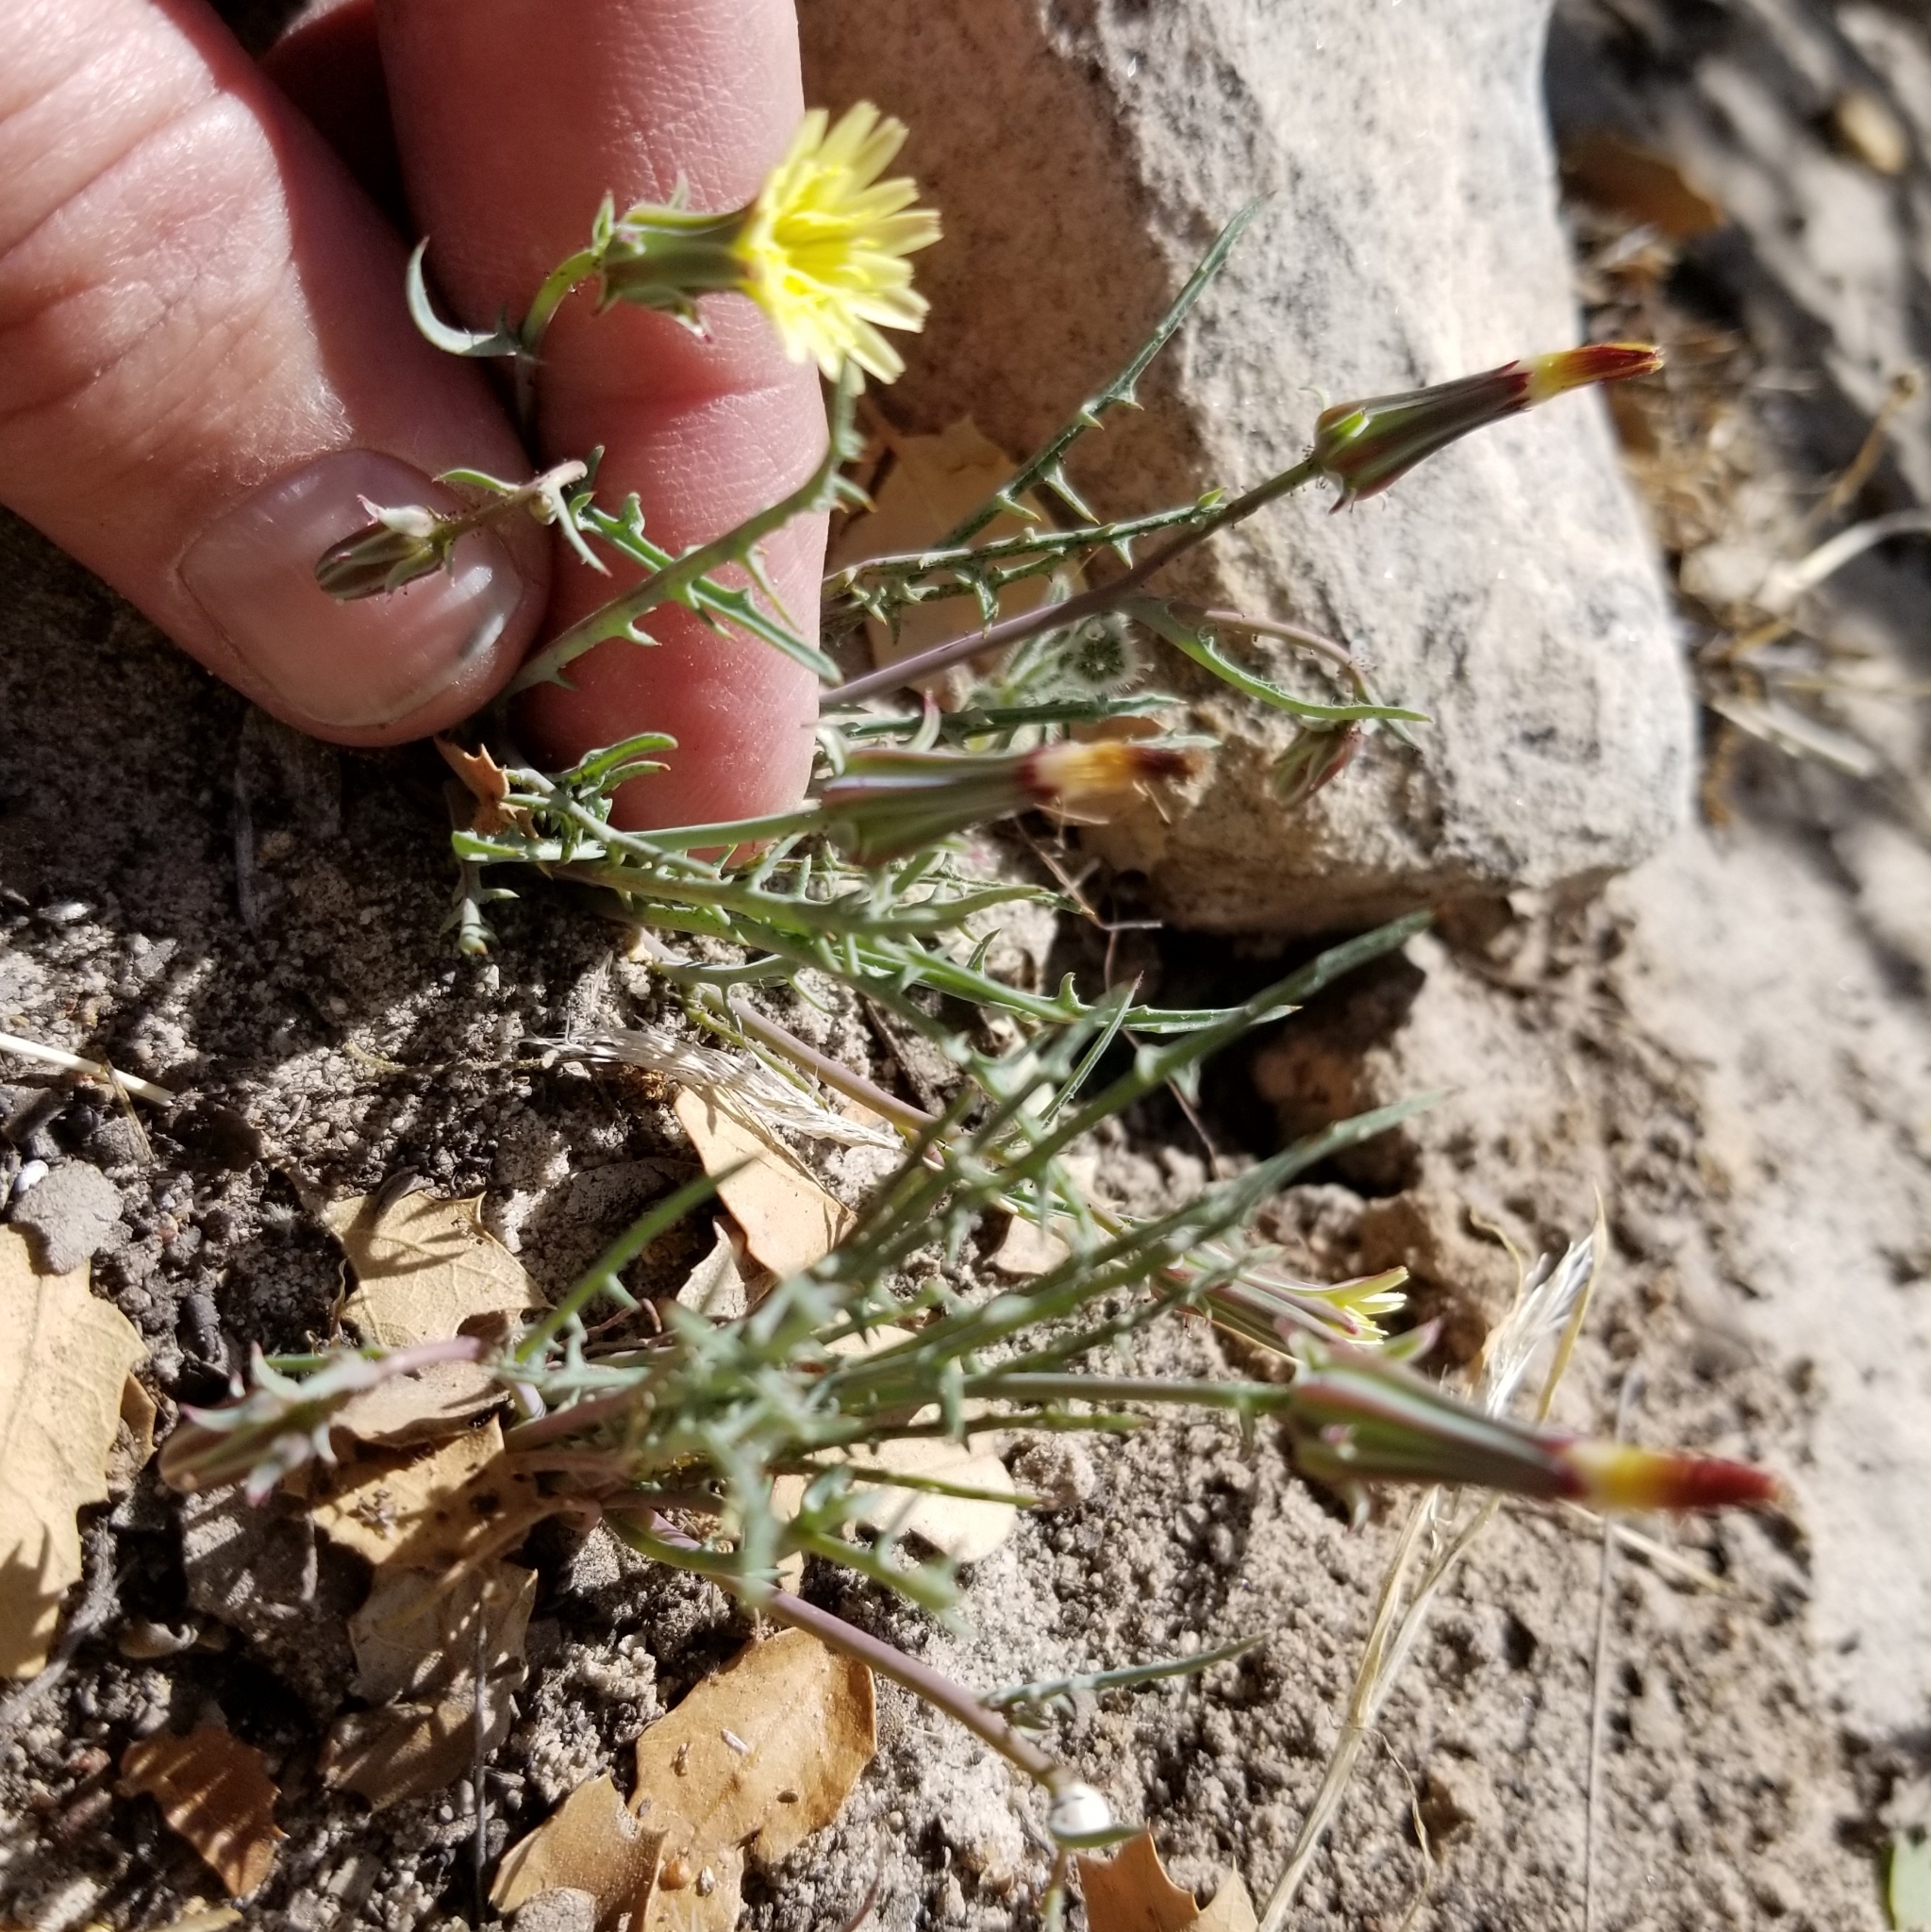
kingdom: Plantae
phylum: Tracheophyta
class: Magnoliopsida
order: Asterales
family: Asteraceae
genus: Calycoseris
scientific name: Calycoseris parryi
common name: Yellow tackstem
